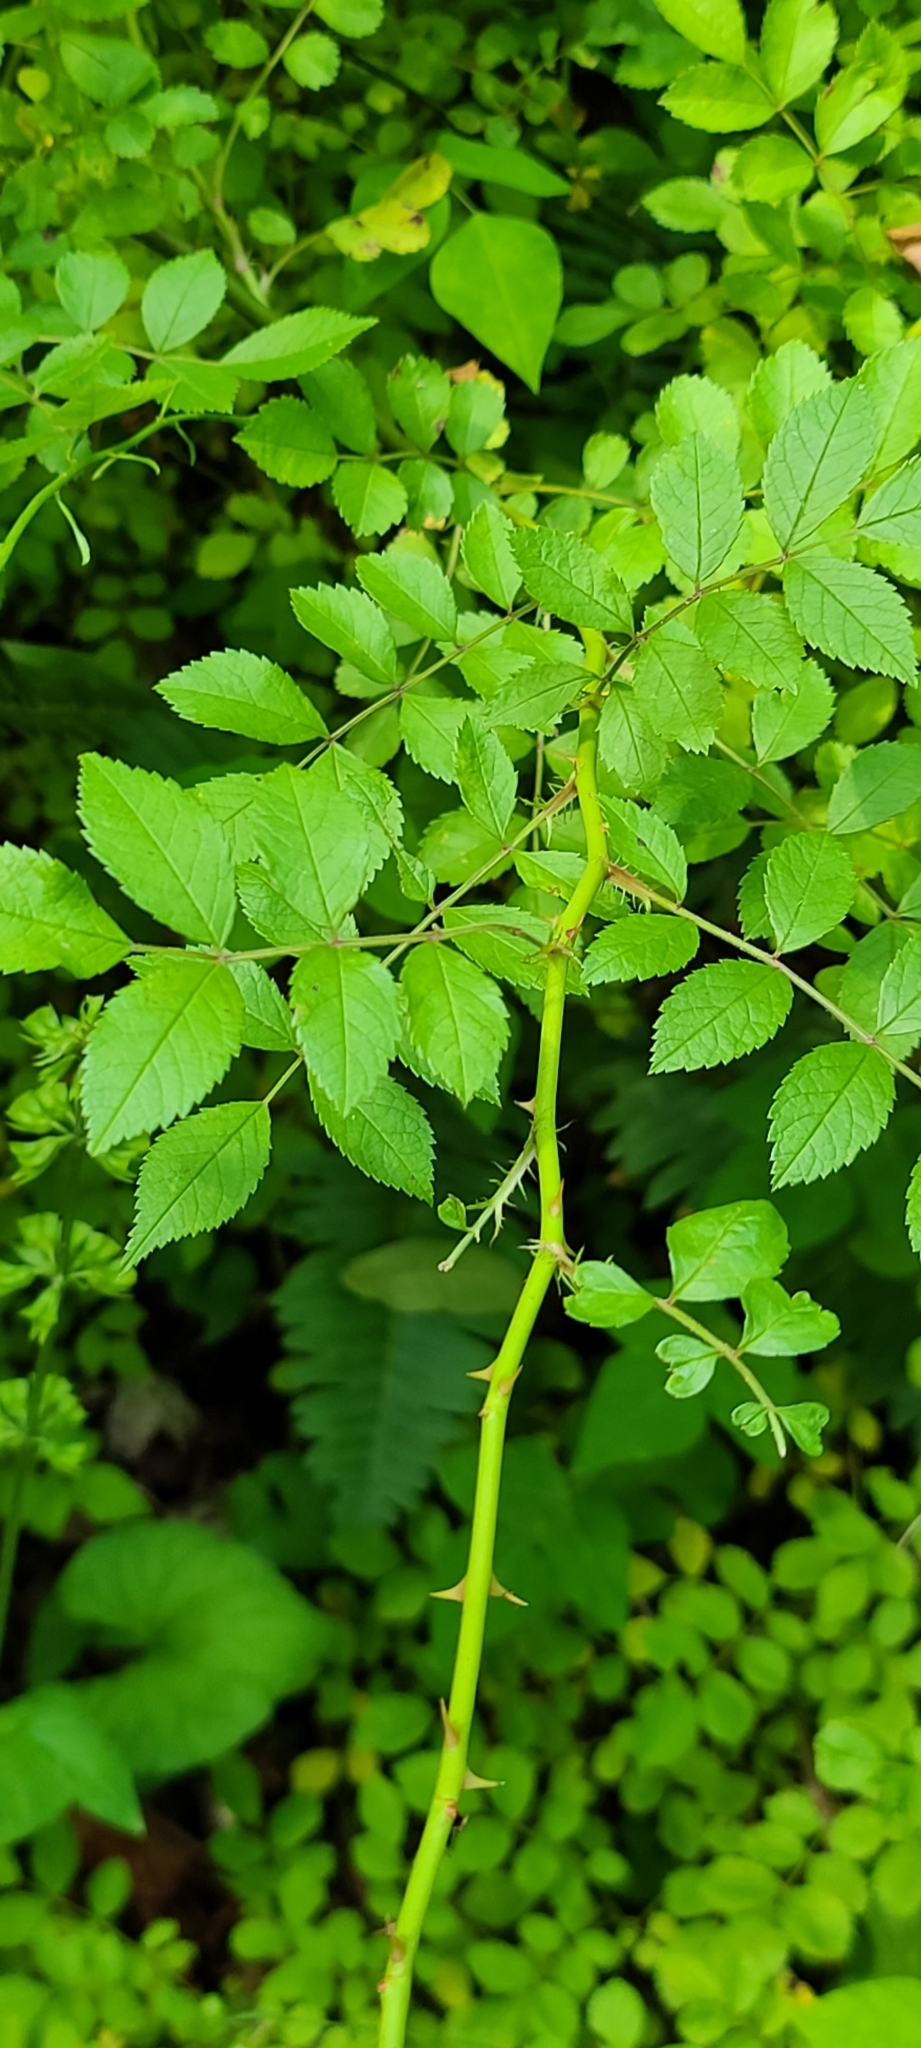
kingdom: Plantae
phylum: Tracheophyta
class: Magnoliopsida
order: Rosales
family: Rosaceae
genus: Rosa
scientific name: Rosa multiflora
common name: Multiflora rose
